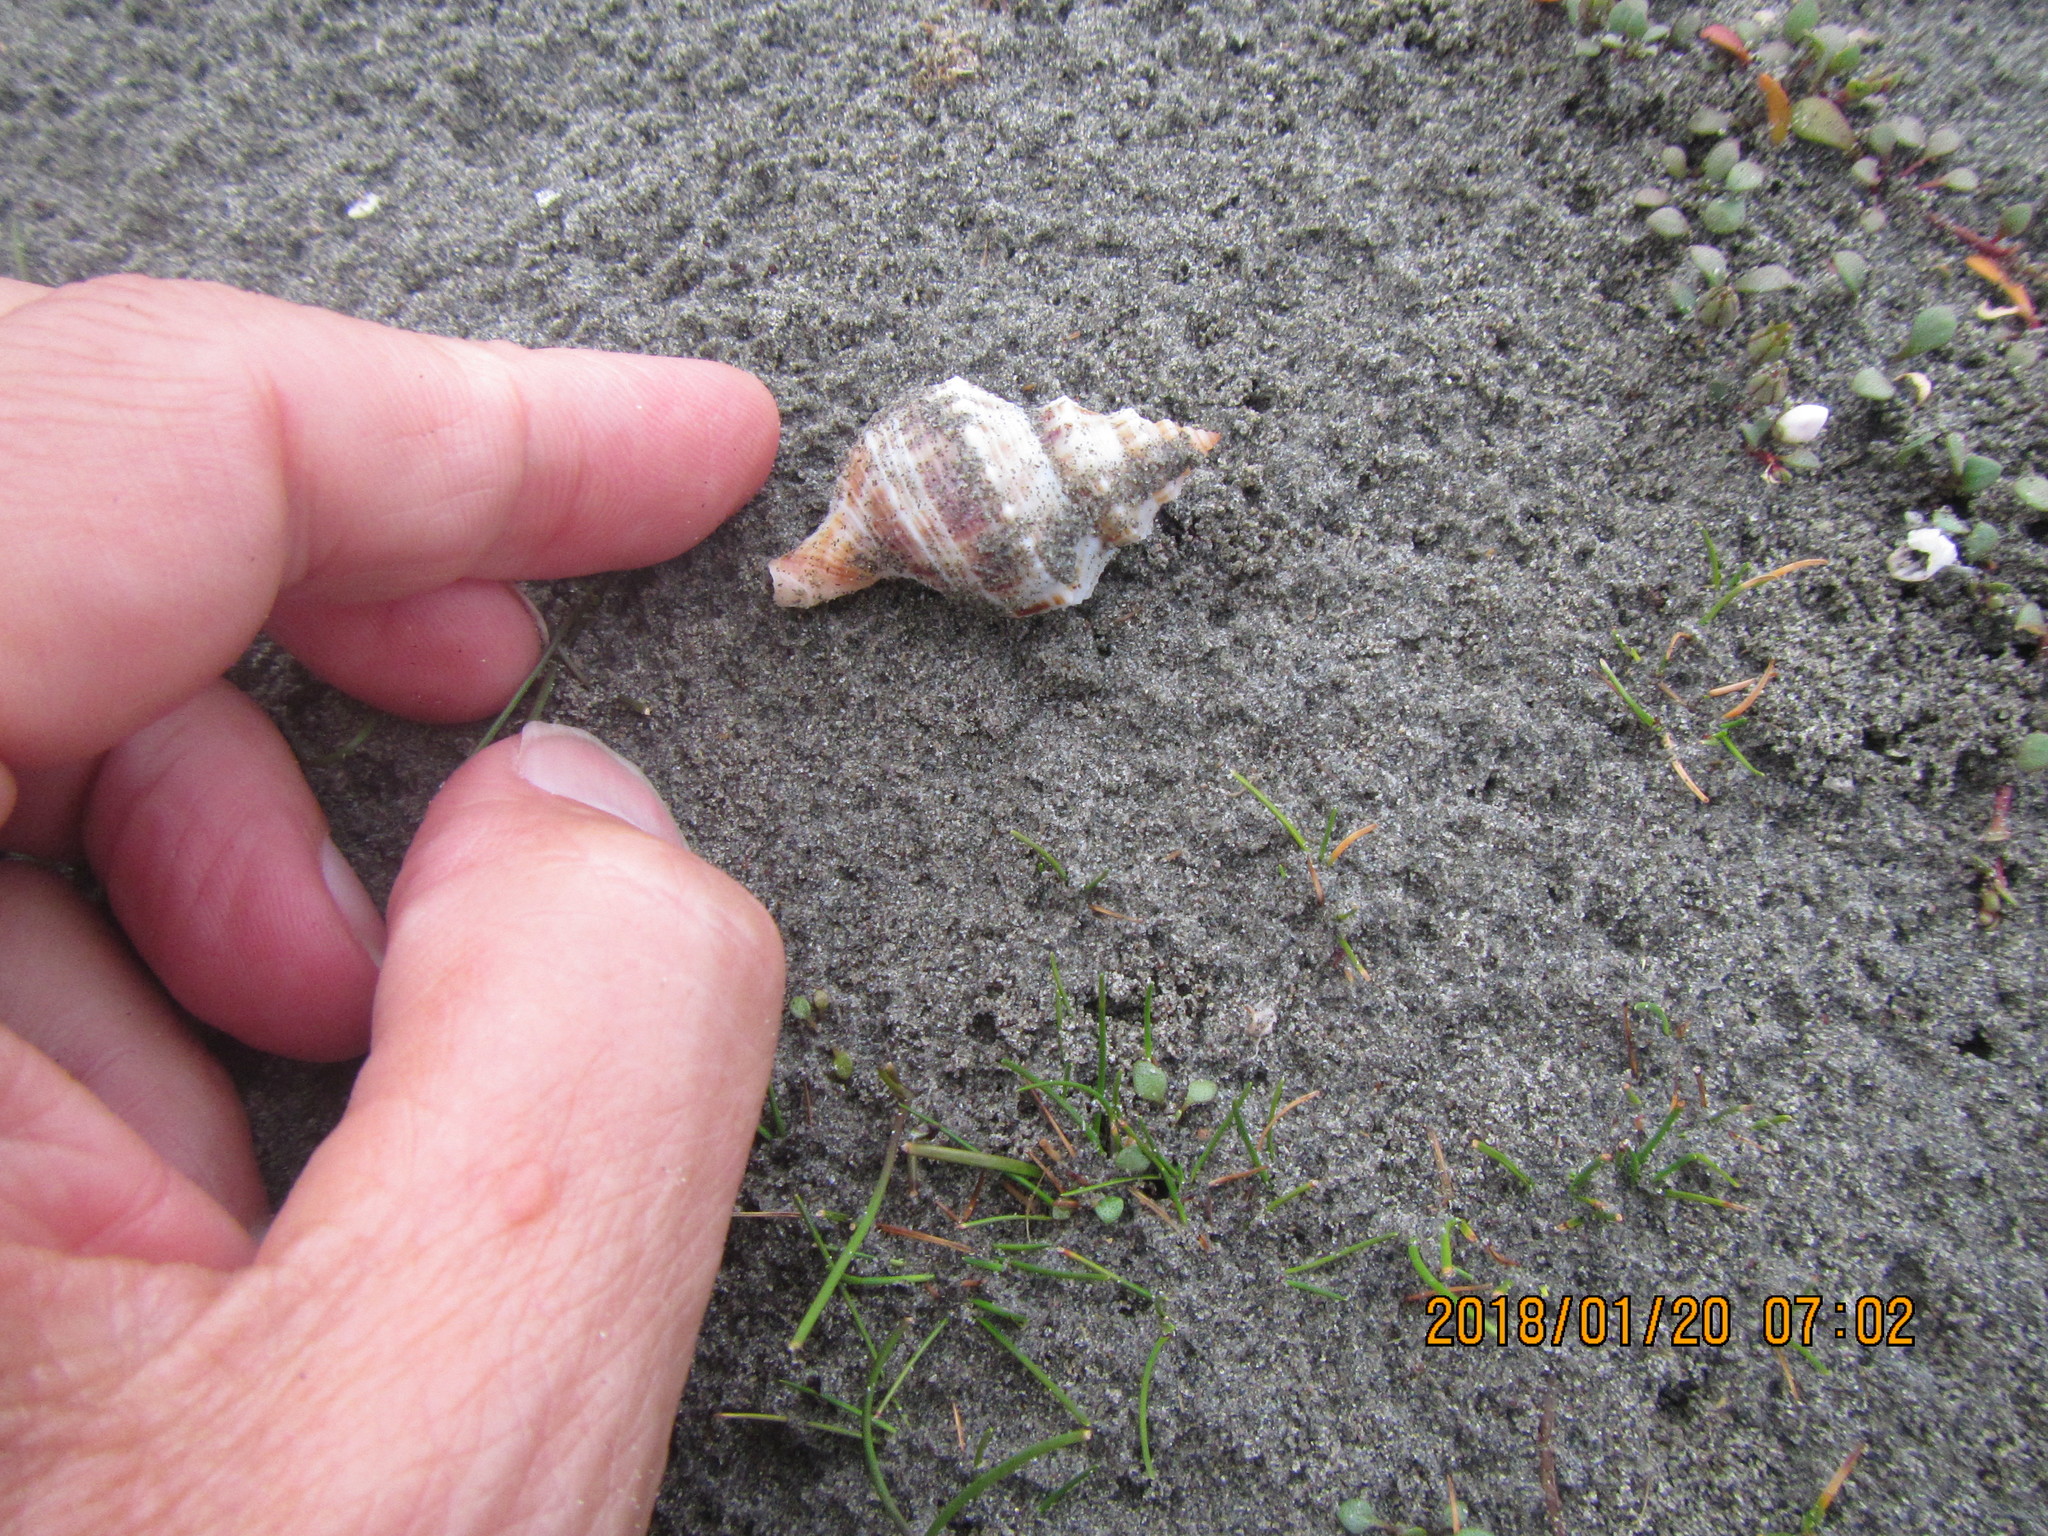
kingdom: Animalia
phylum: Mollusca
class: Gastropoda
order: Neogastropoda
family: Prosiphonidae
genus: Austrofusus
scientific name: Austrofusus glans
